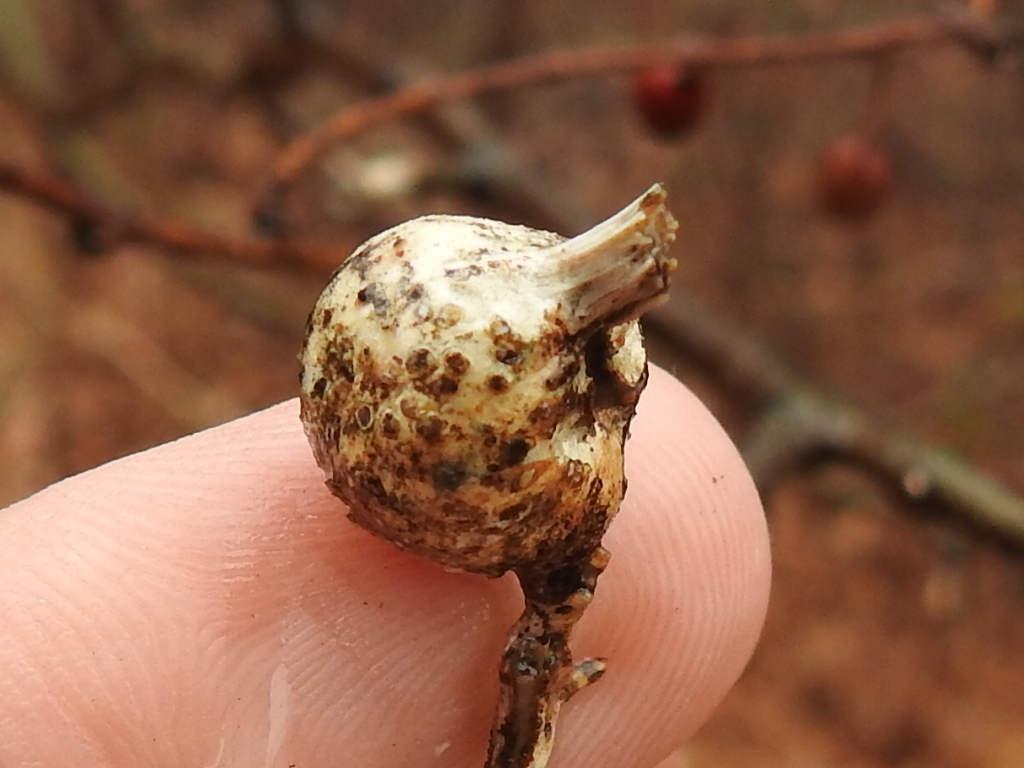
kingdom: Animalia
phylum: Arthropoda
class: Insecta
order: Hemiptera
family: Aphalaridae
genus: Pachypsylla
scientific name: Pachypsylla venusta
